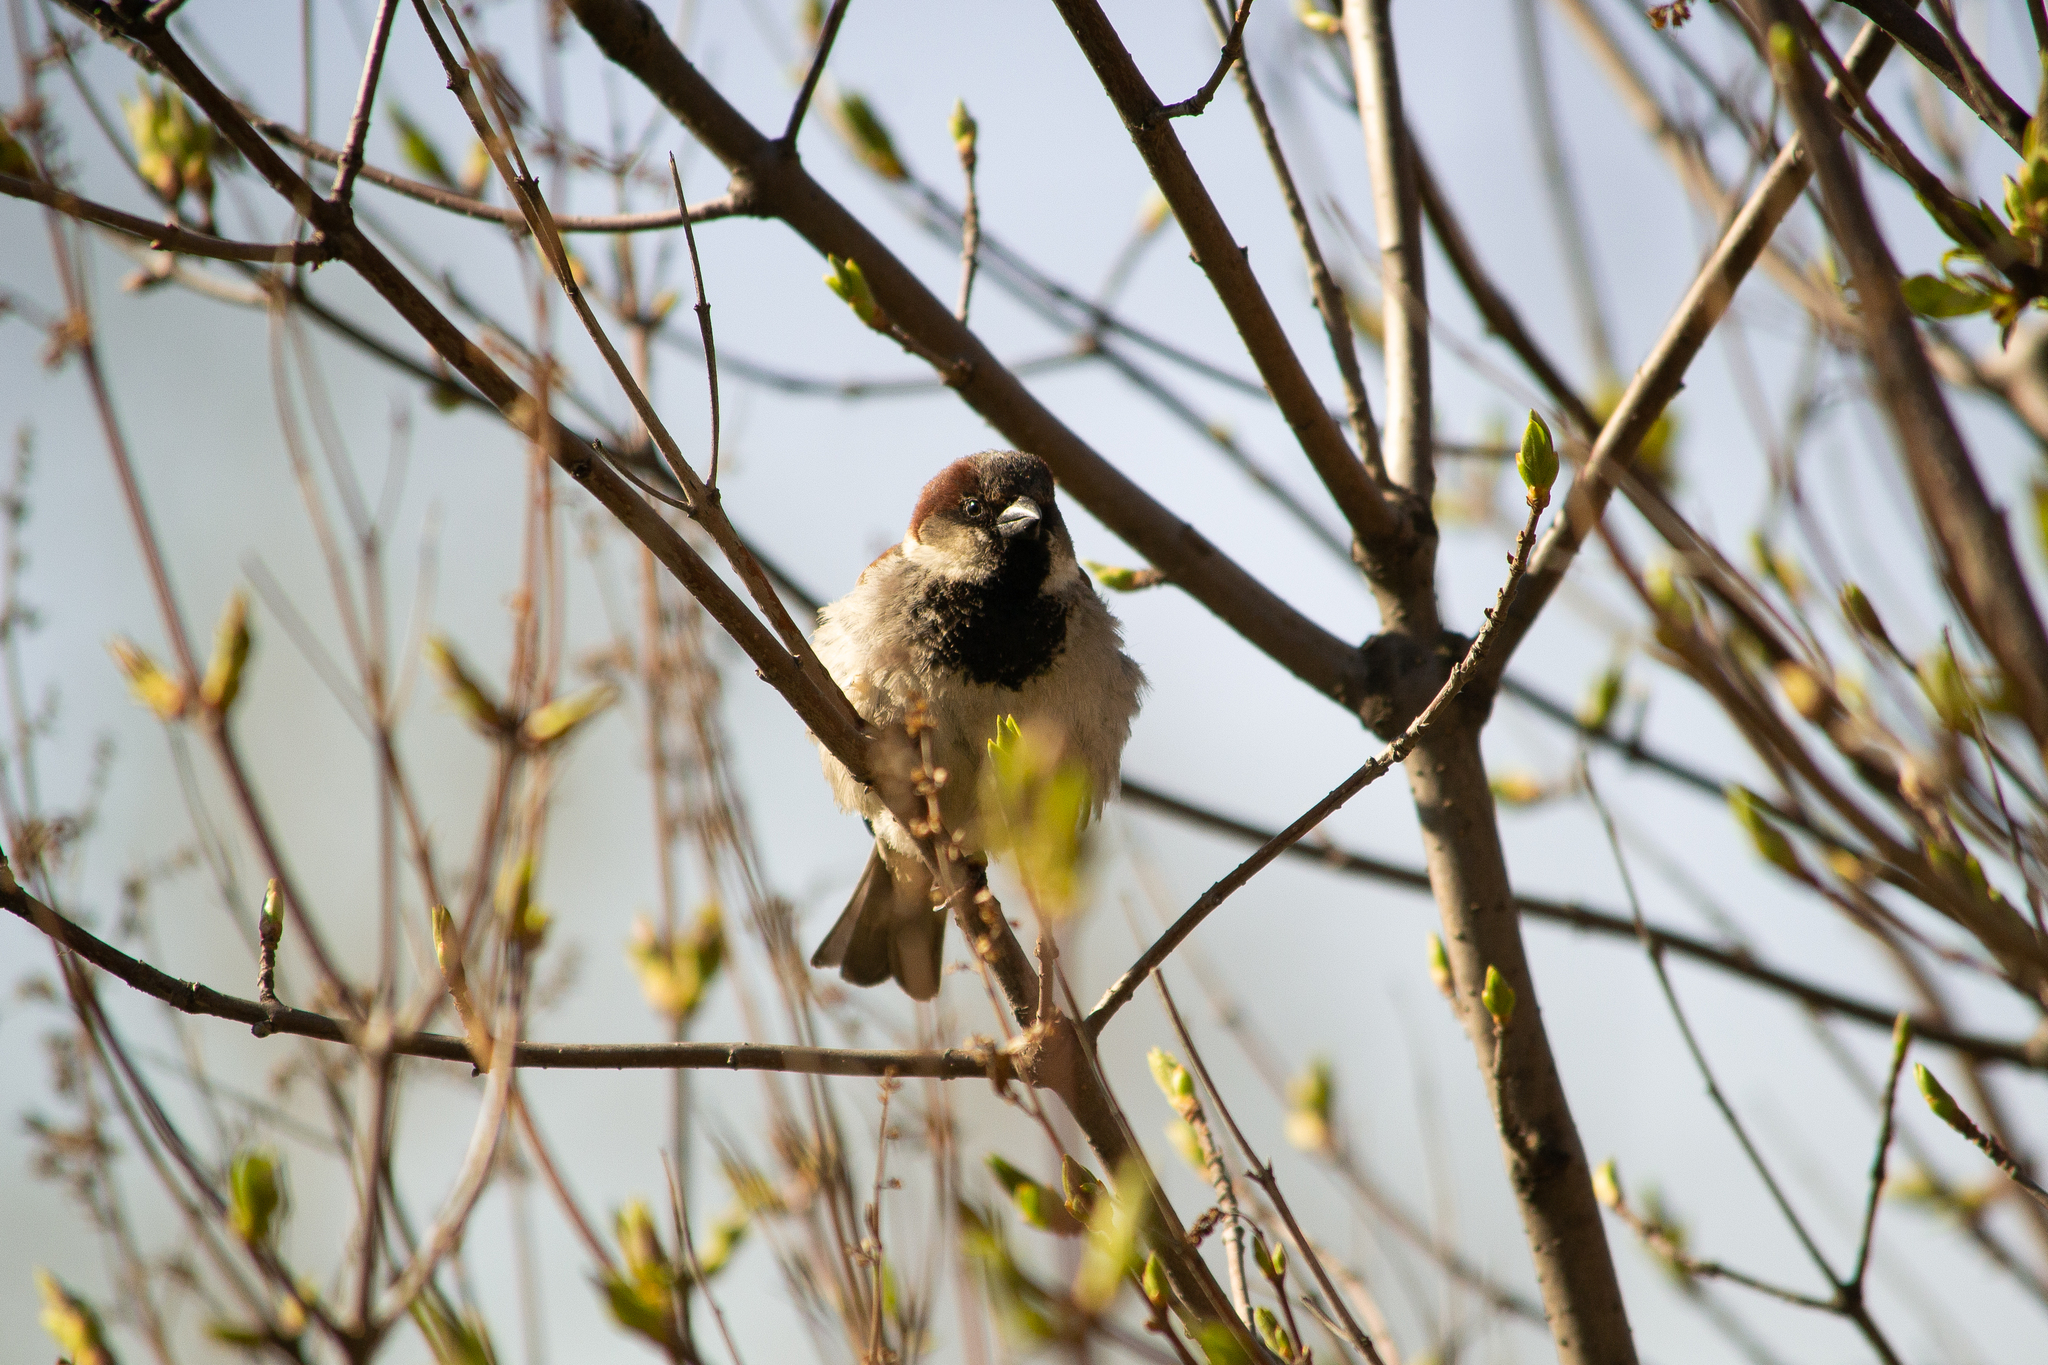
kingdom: Animalia
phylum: Chordata
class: Aves
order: Passeriformes
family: Passeridae
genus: Passer
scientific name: Passer domesticus
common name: House sparrow
